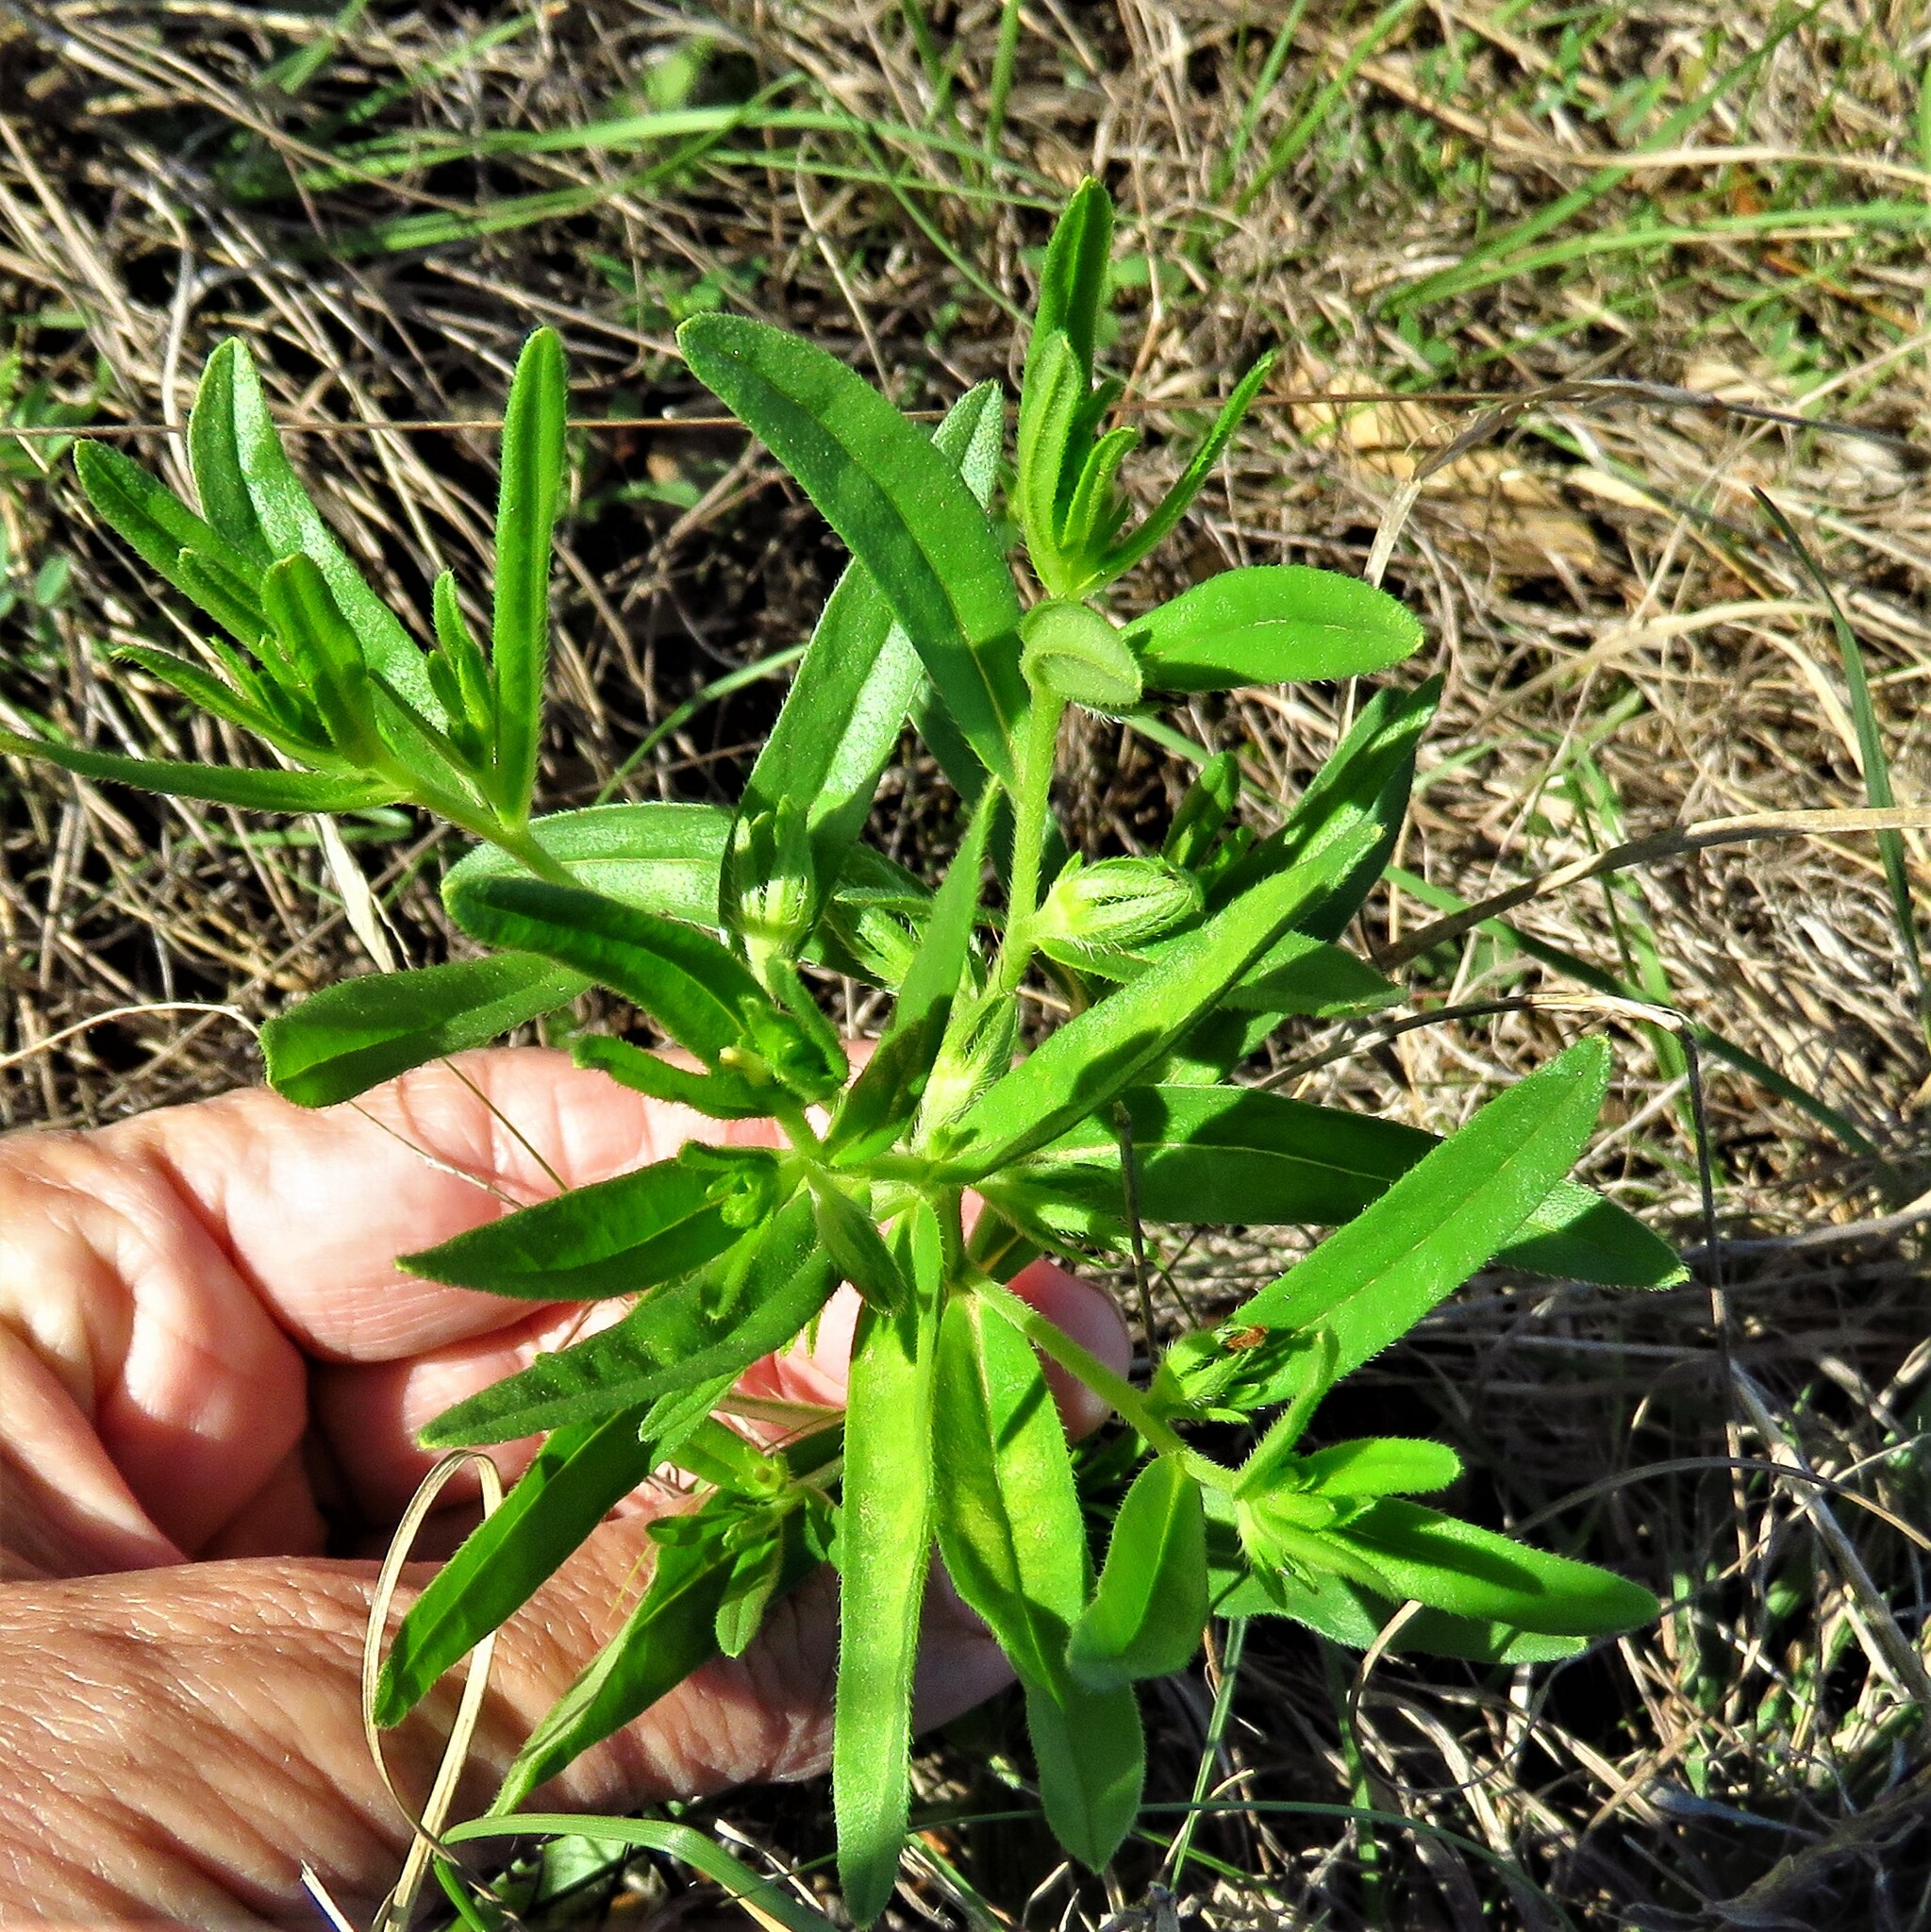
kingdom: Plantae
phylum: Tracheophyta
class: Magnoliopsida
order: Boraginales
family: Boraginaceae
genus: Lithospermum
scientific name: Lithospermum incisum
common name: Fringed gromwell
